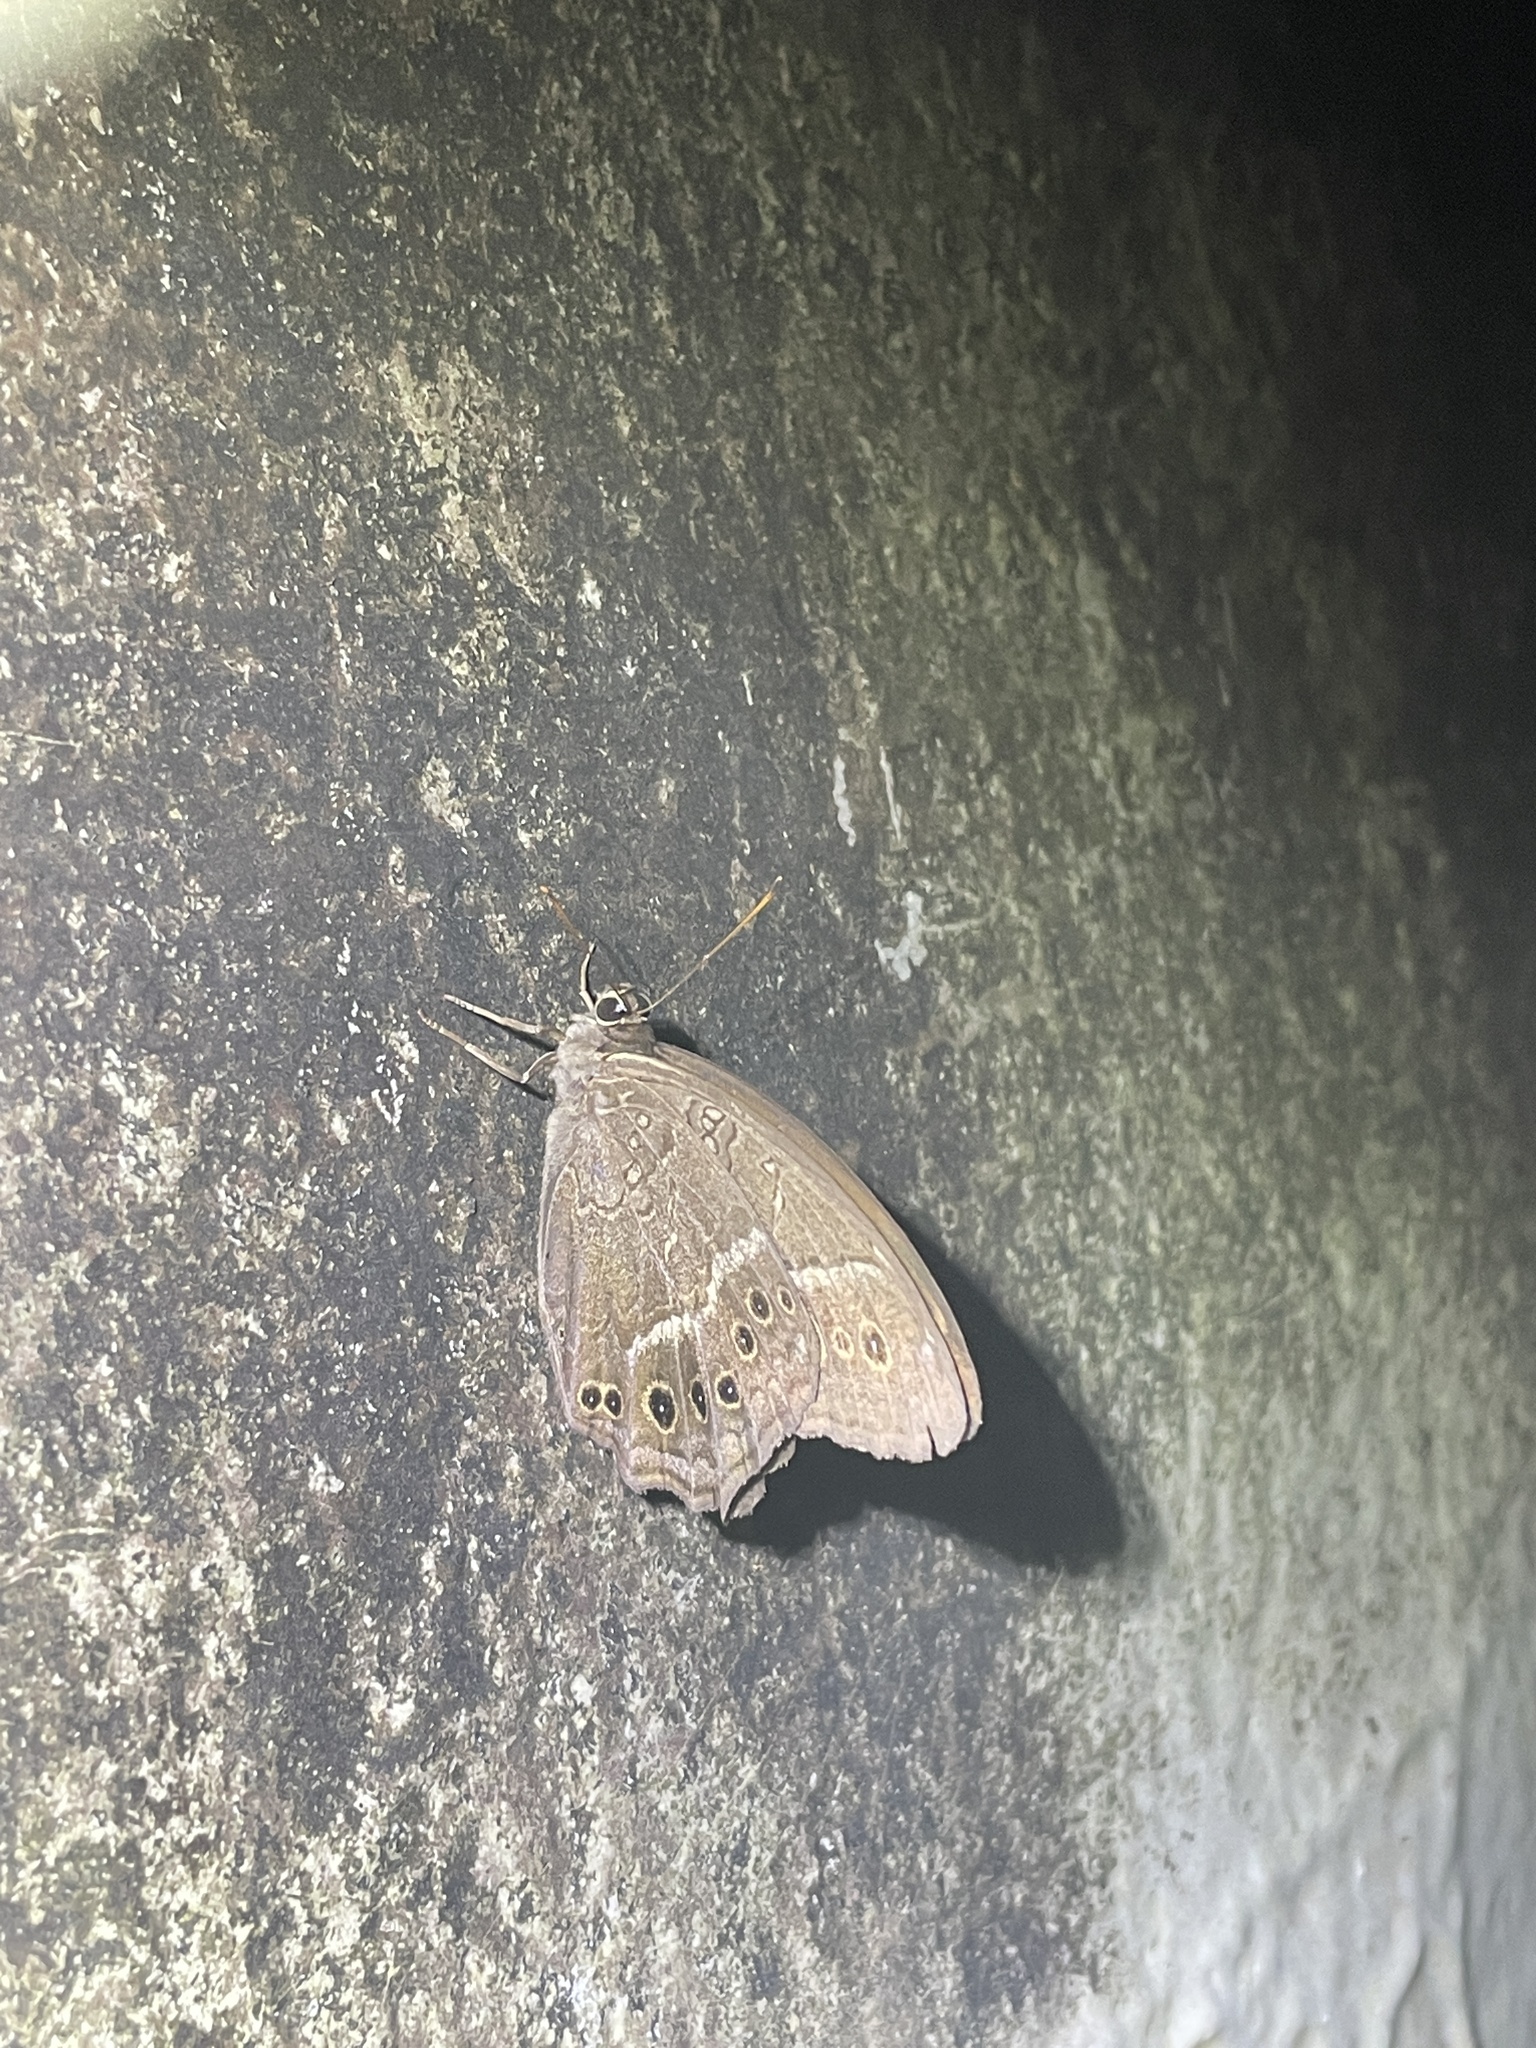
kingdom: Animalia
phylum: Arthropoda
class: Insecta
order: Lepidoptera
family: Nymphalidae
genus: Neope
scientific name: Neope muirheadii
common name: Black-spotted labyrinth
